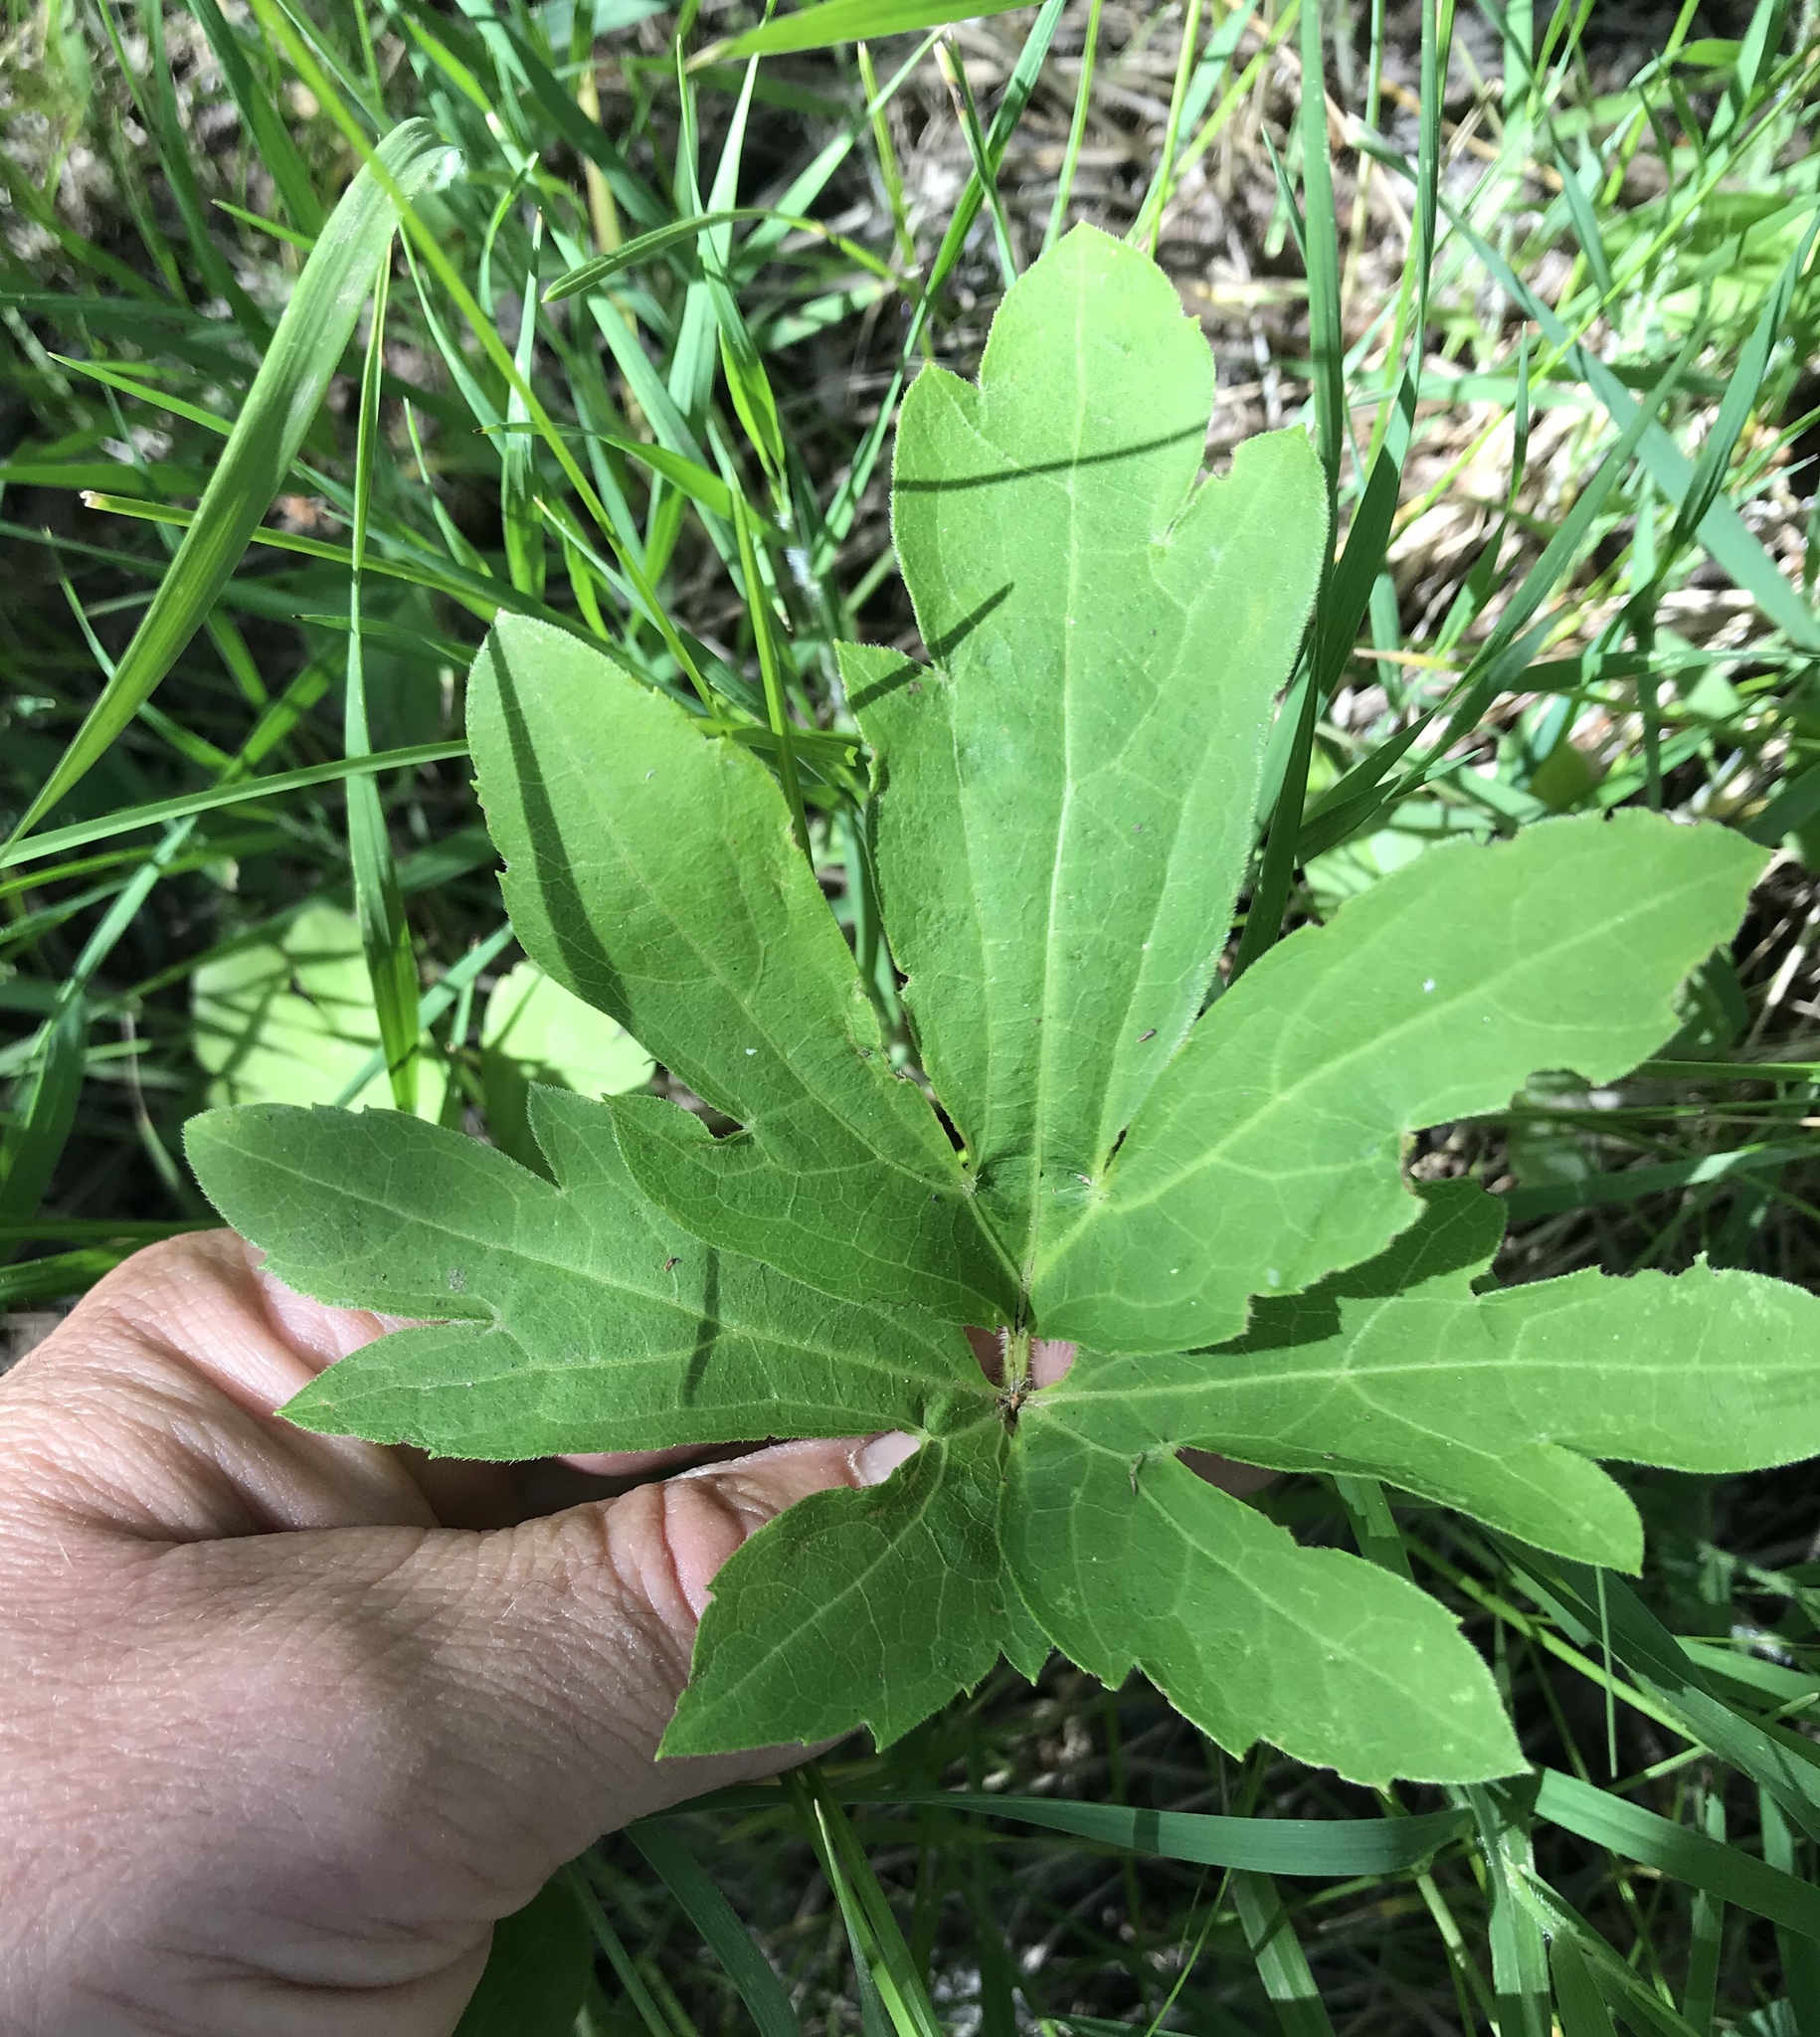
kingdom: Plantae
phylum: Tracheophyta
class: Magnoliopsida
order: Asterales
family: Asteraceae
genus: Rudbeckia
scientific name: Rudbeckia laciniata
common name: Coneflower
